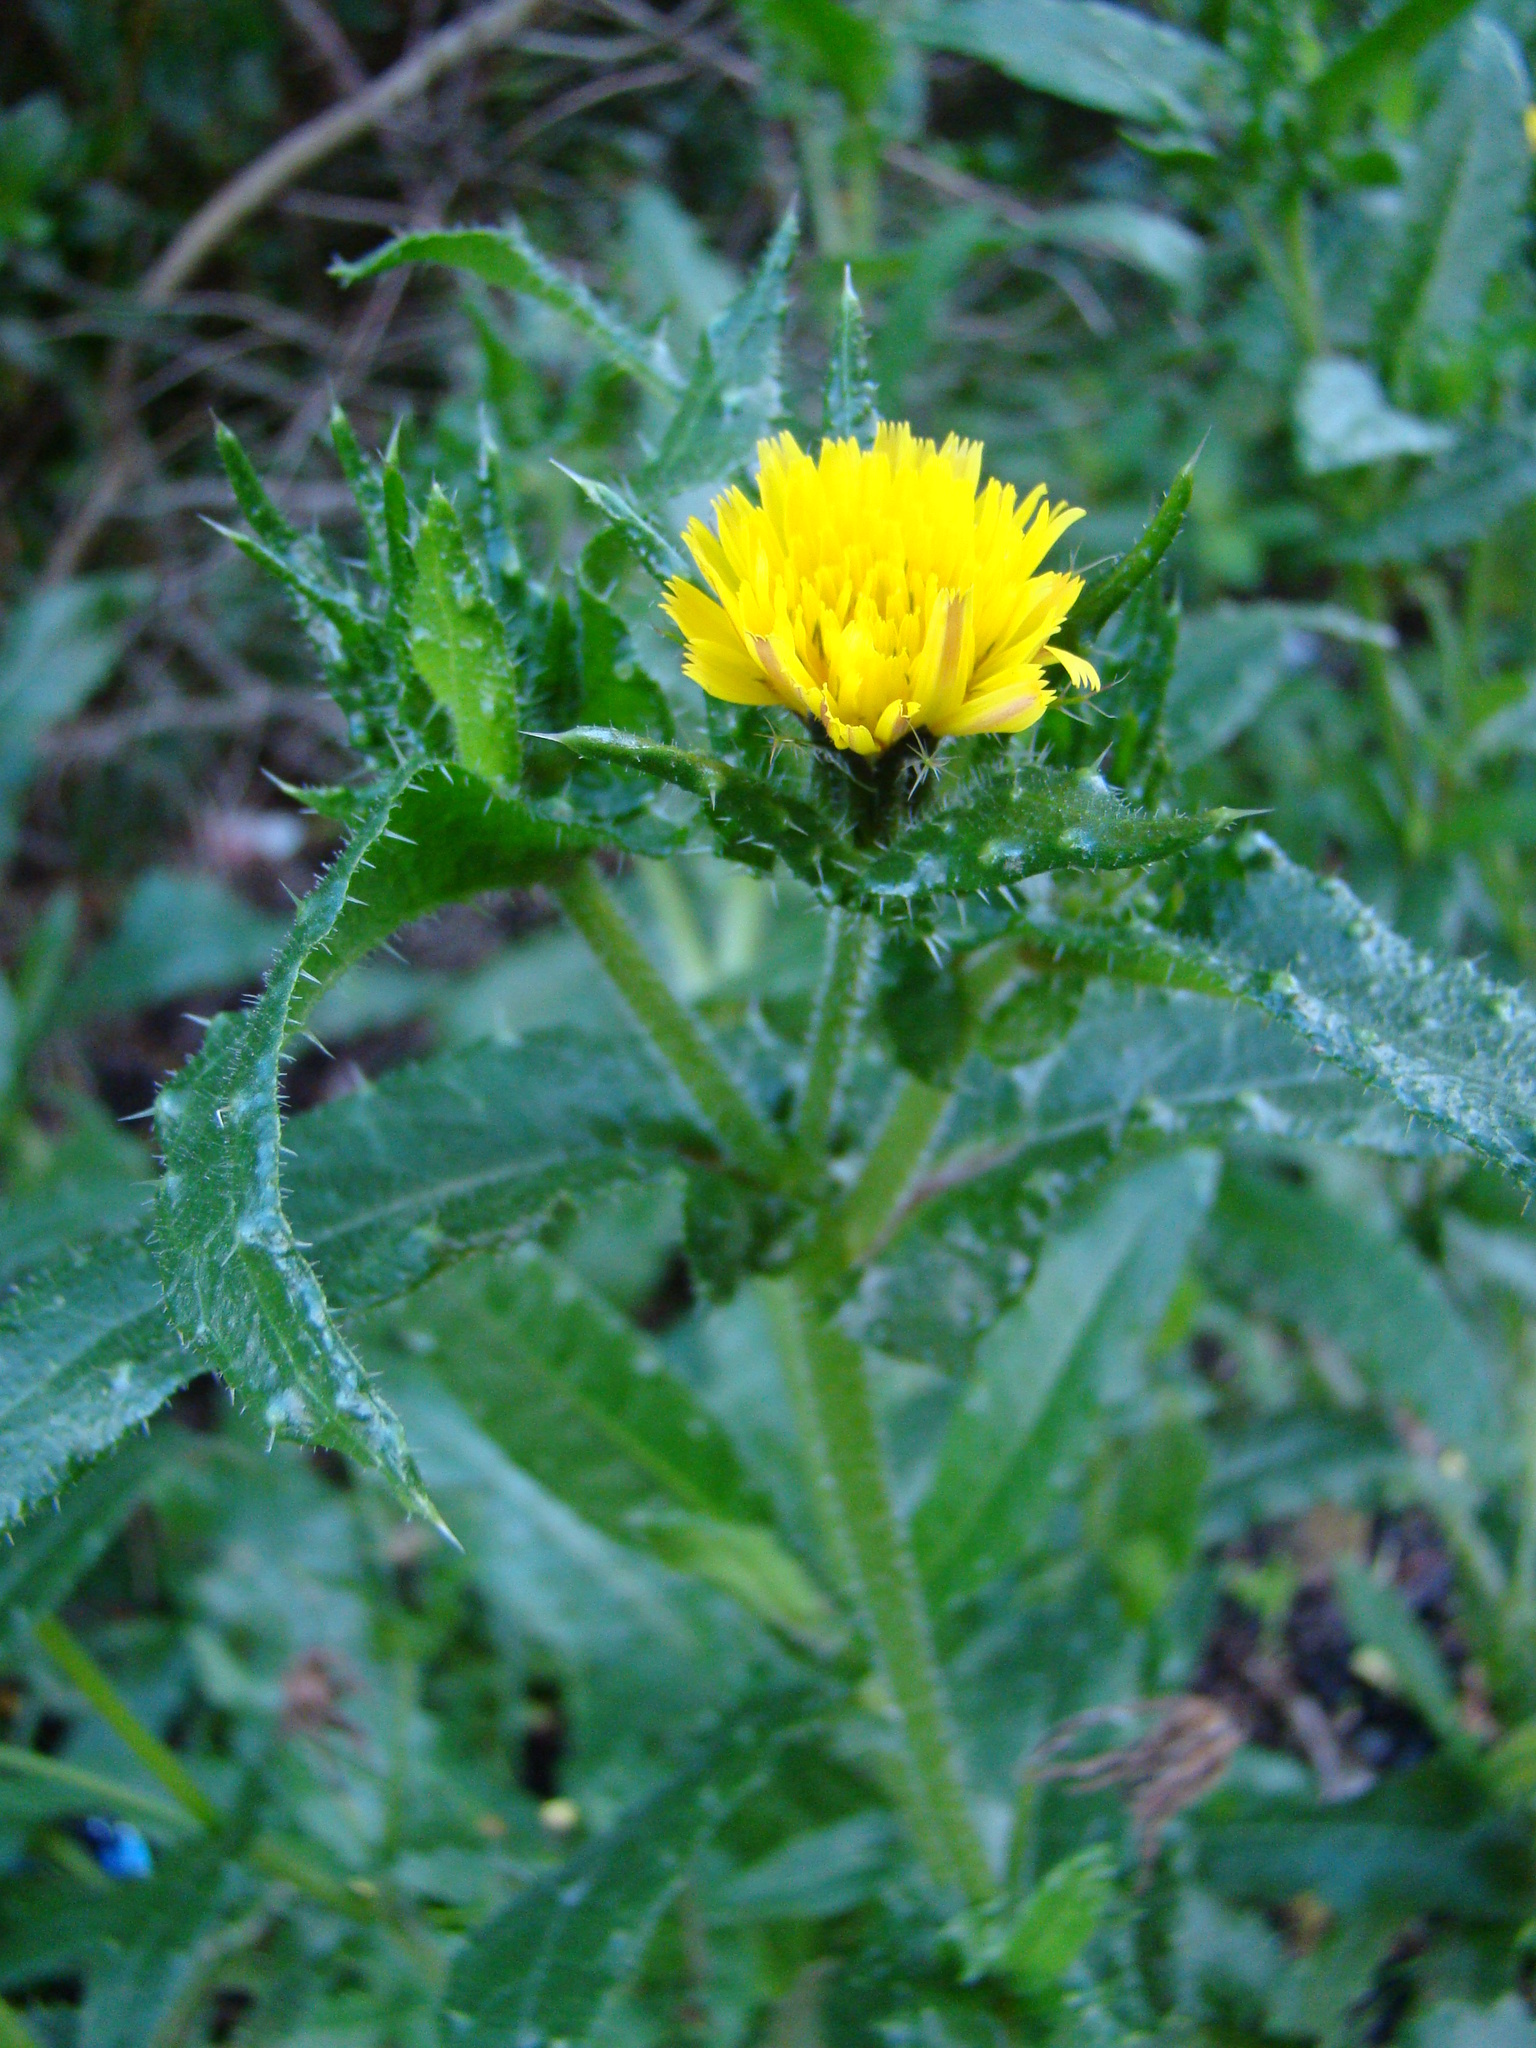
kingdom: Plantae
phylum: Tracheophyta
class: Magnoliopsida
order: Asterales
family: Asteraceae
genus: Helminthotheca
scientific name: Helminthotheca echioides
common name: Ox-tongue
